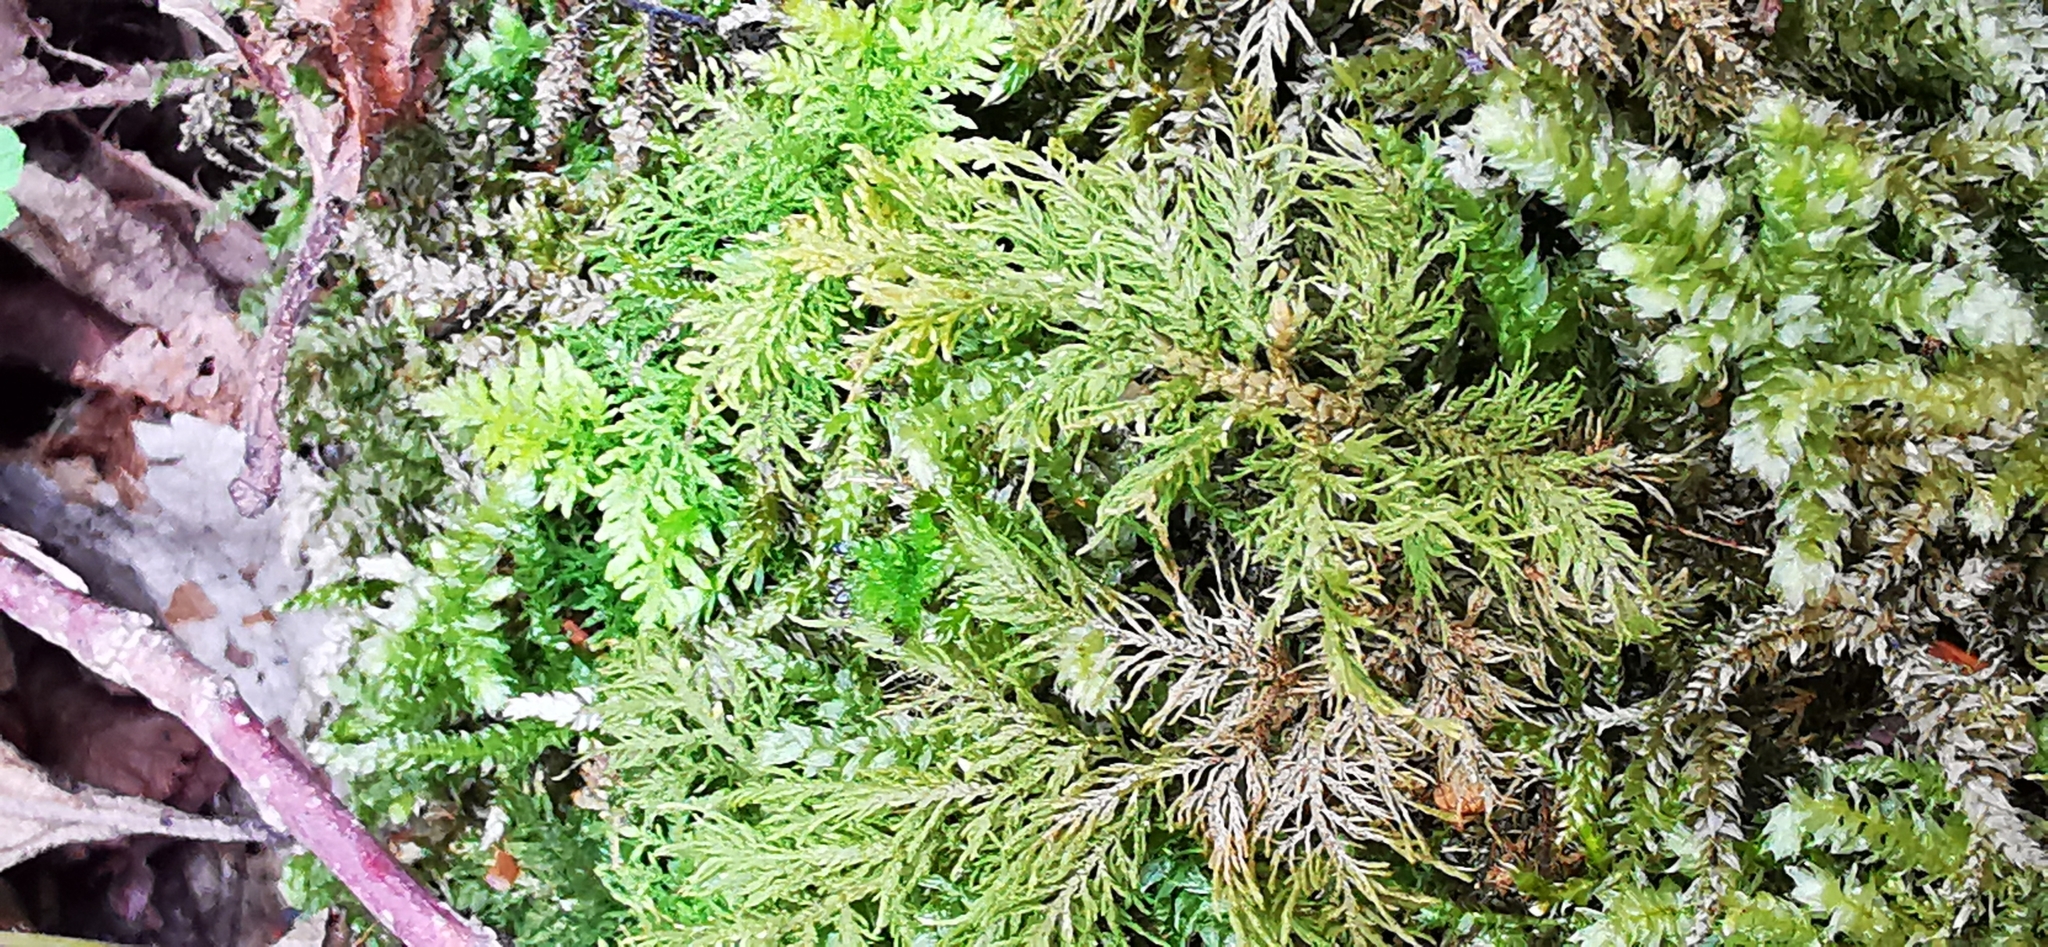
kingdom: Plantae
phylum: Bryophyta
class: Bryopsida
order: Hypnales
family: Thuidiaceae
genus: Thuidium
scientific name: Thuidium tamariscinum
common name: Common tamarisk-moss
